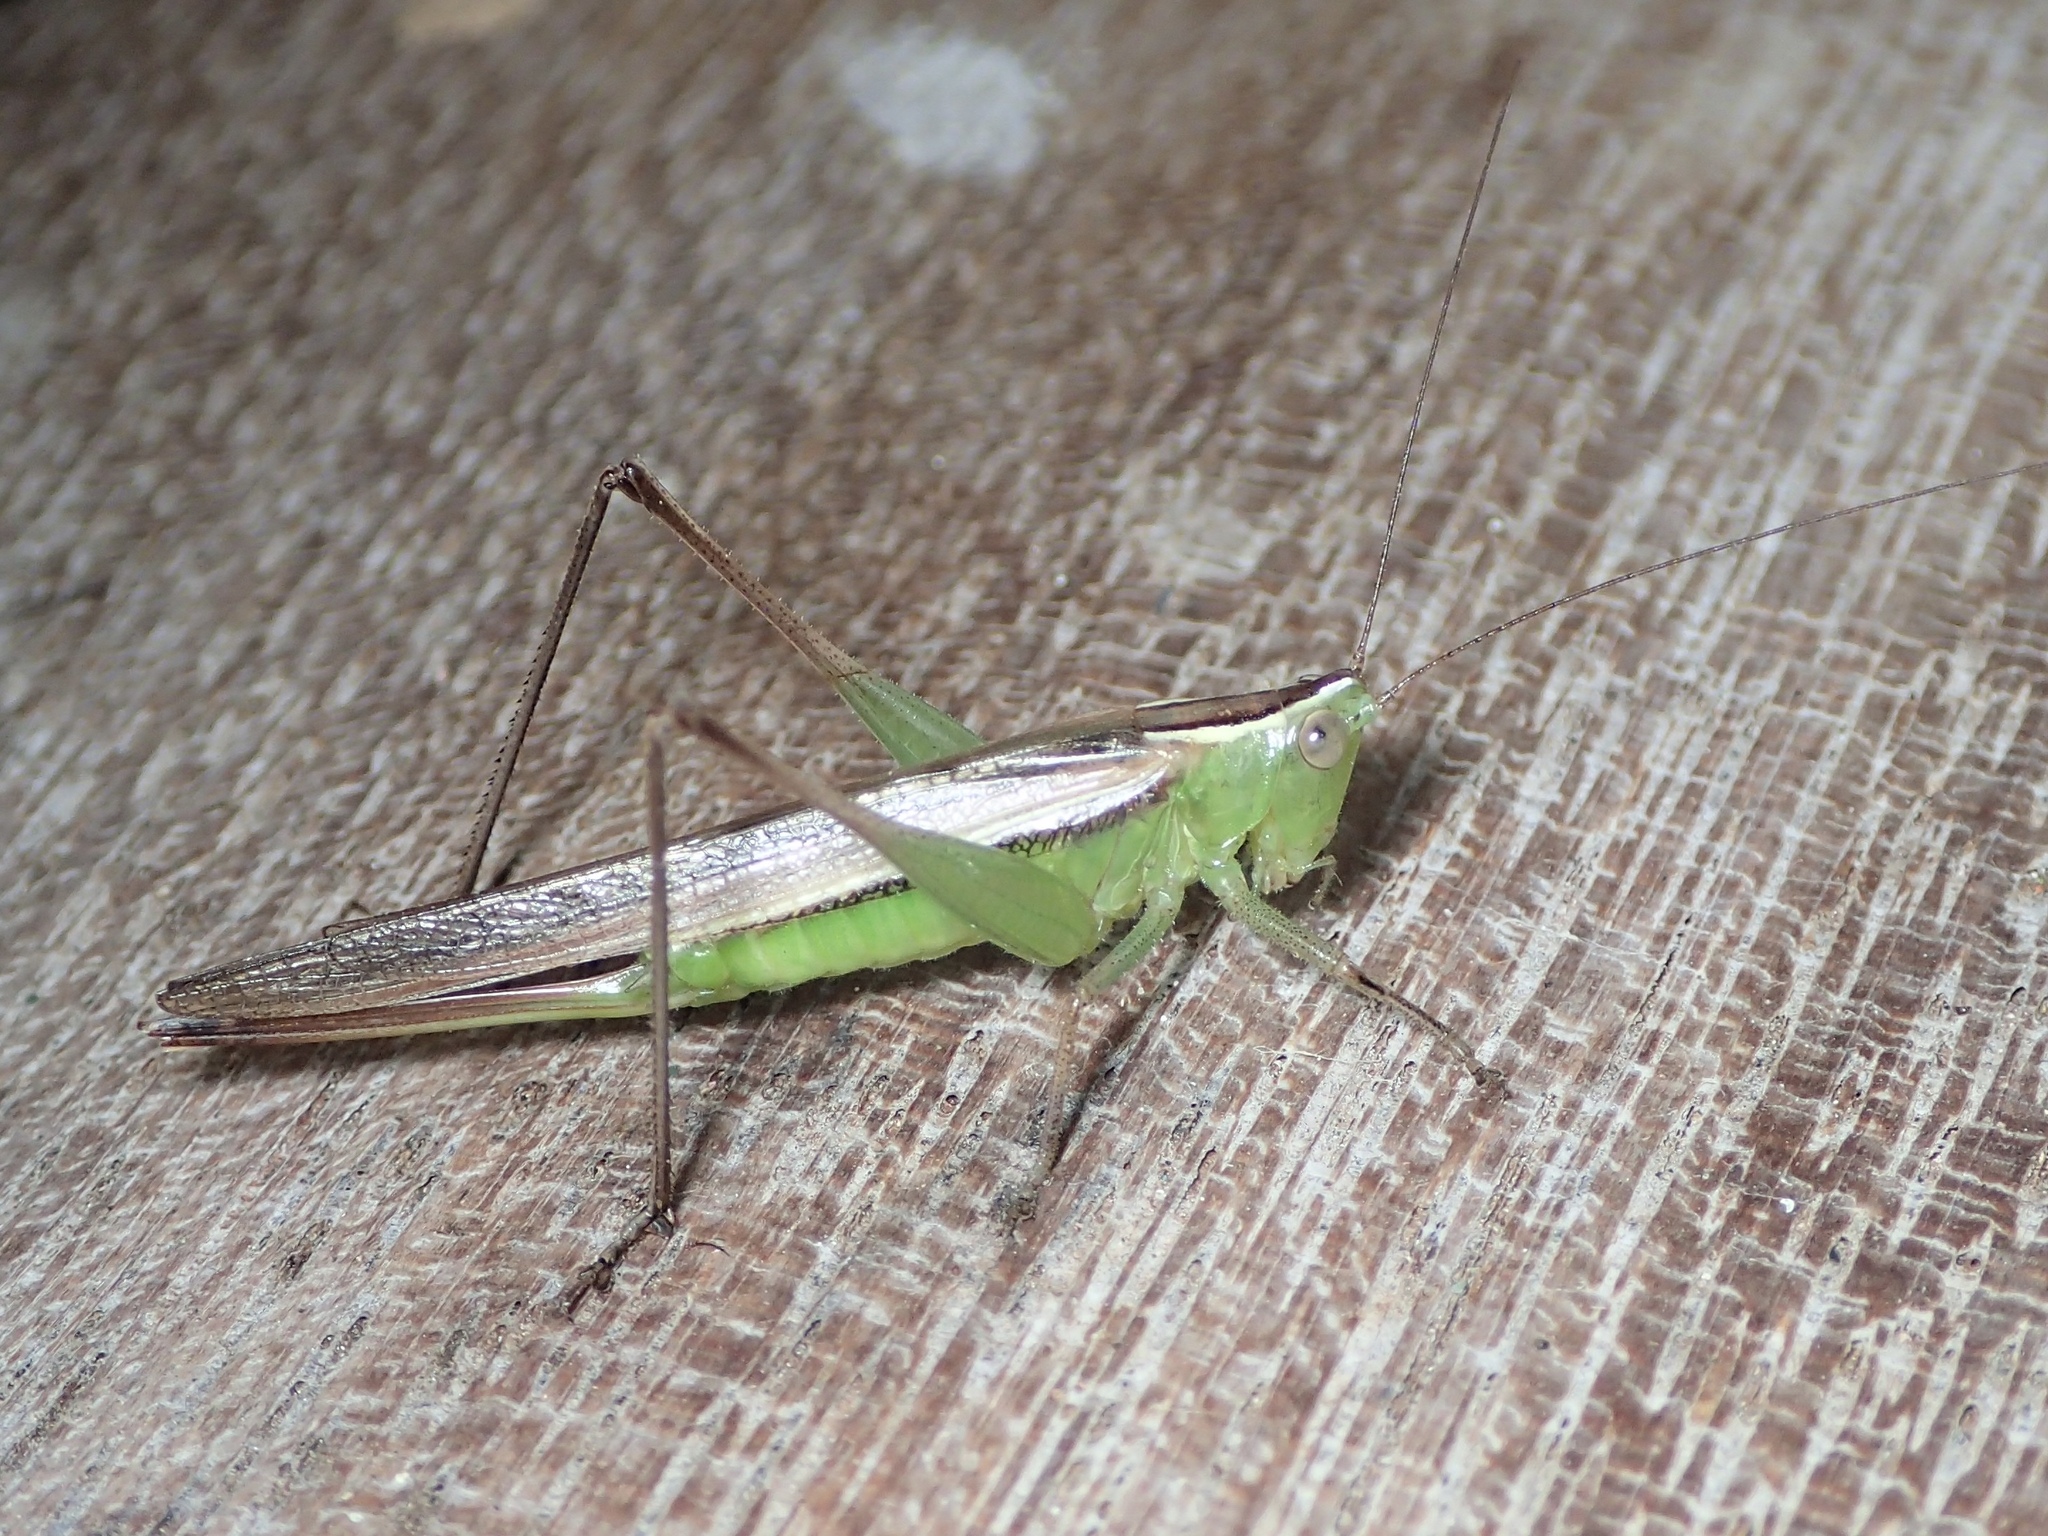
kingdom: Animalia
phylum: Arthropoda
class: Insecta
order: Orthoptera
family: Tettigoniidae
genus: Conocephalus
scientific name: Conocephalus albescens
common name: Whitish meadow katydid
